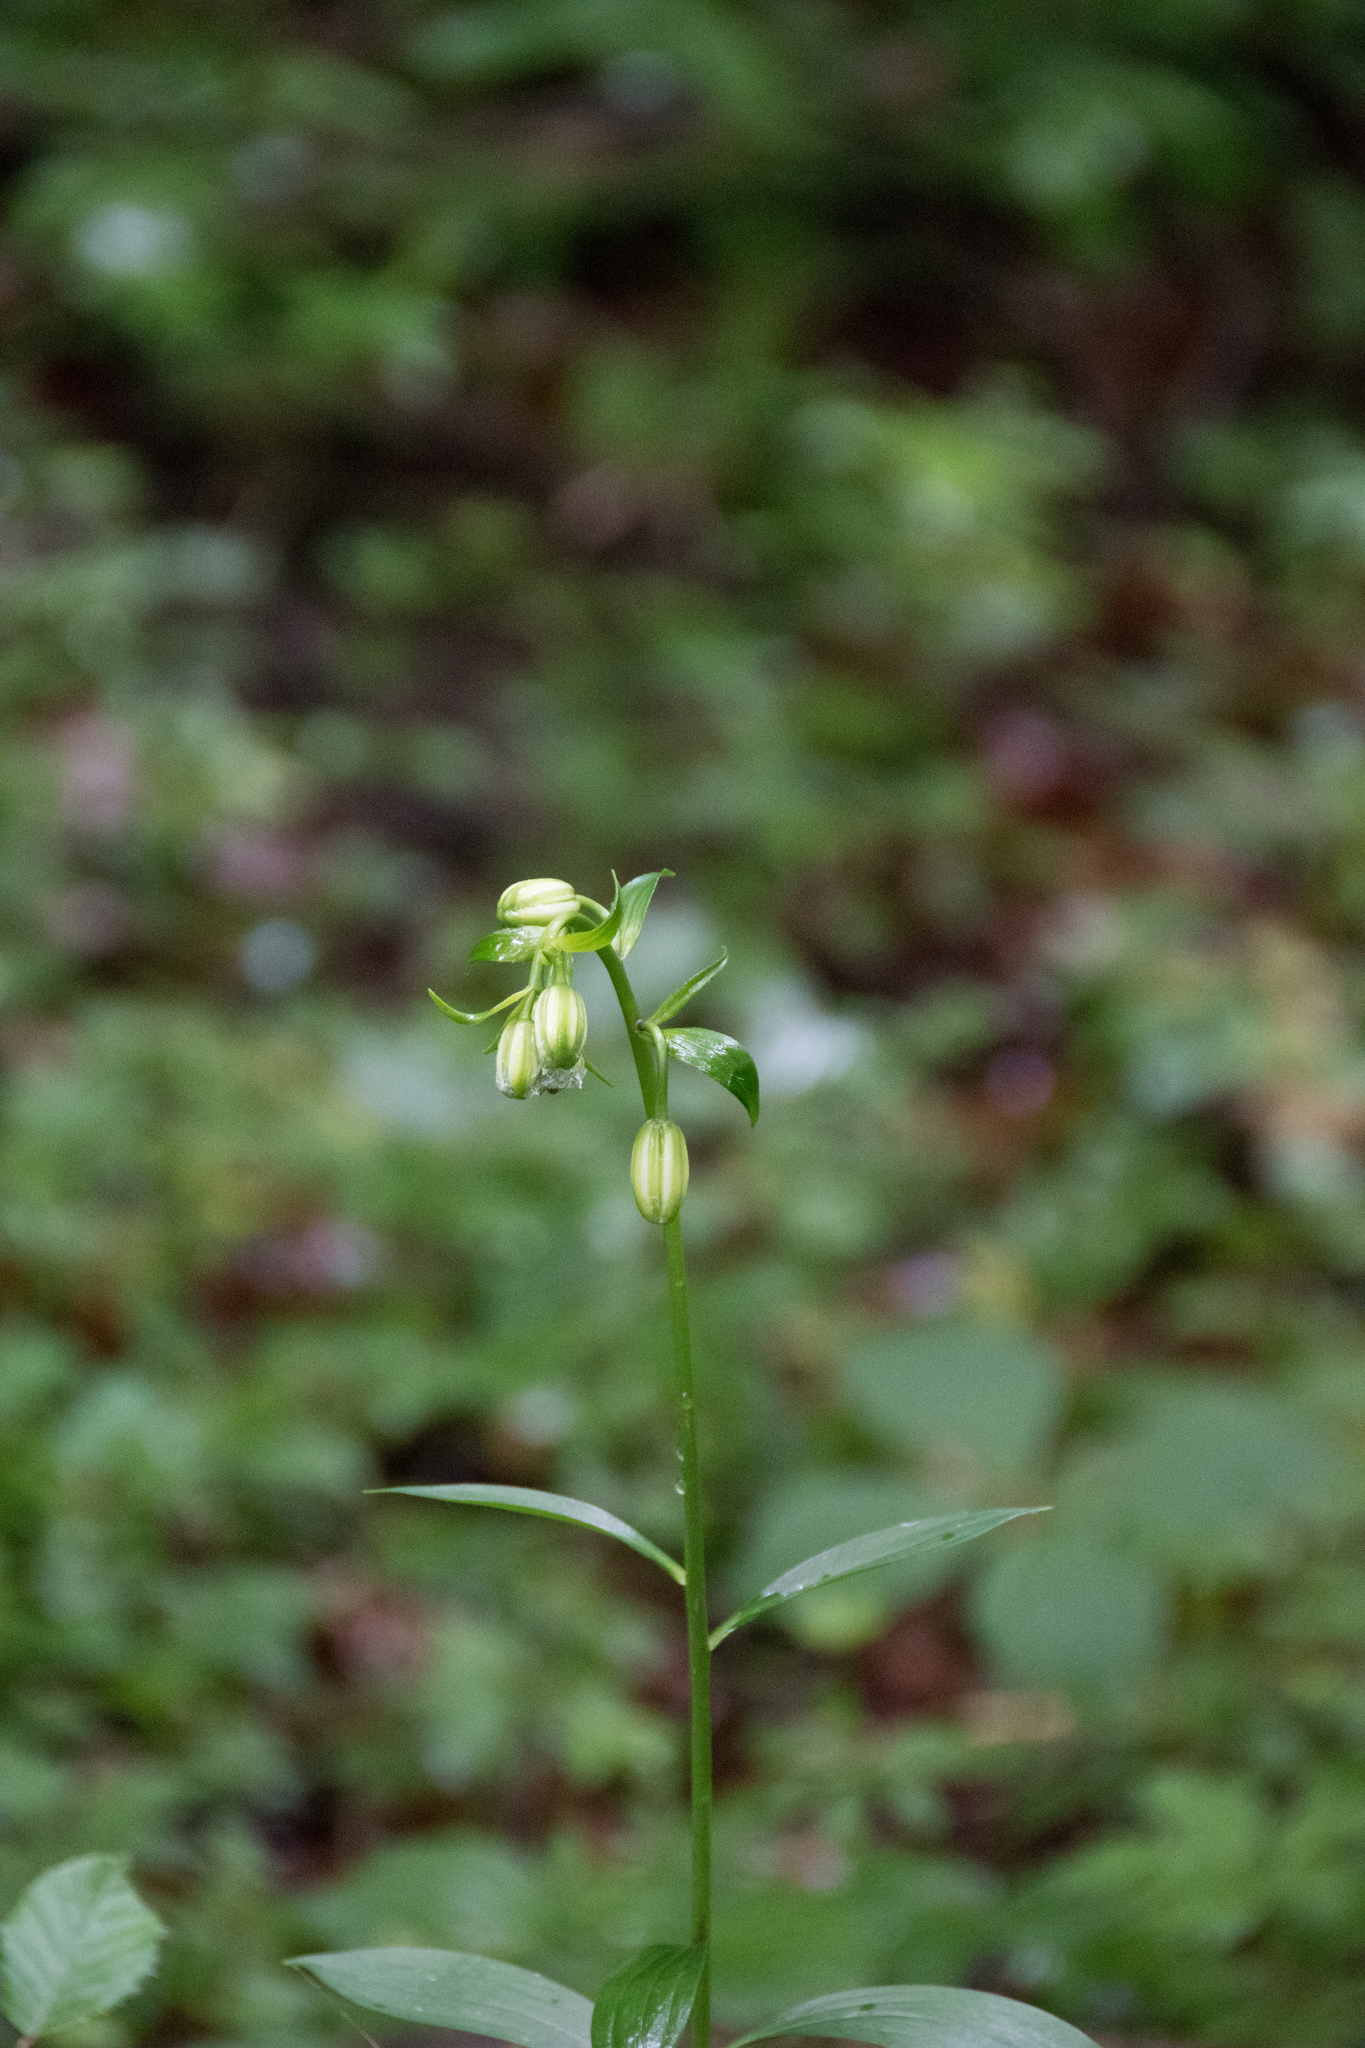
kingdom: Plantae
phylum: Tracheophyta
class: Liliopsida
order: Liliales
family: Liliaceae
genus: Lilium
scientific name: Lilium martagon
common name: Martagon lily
